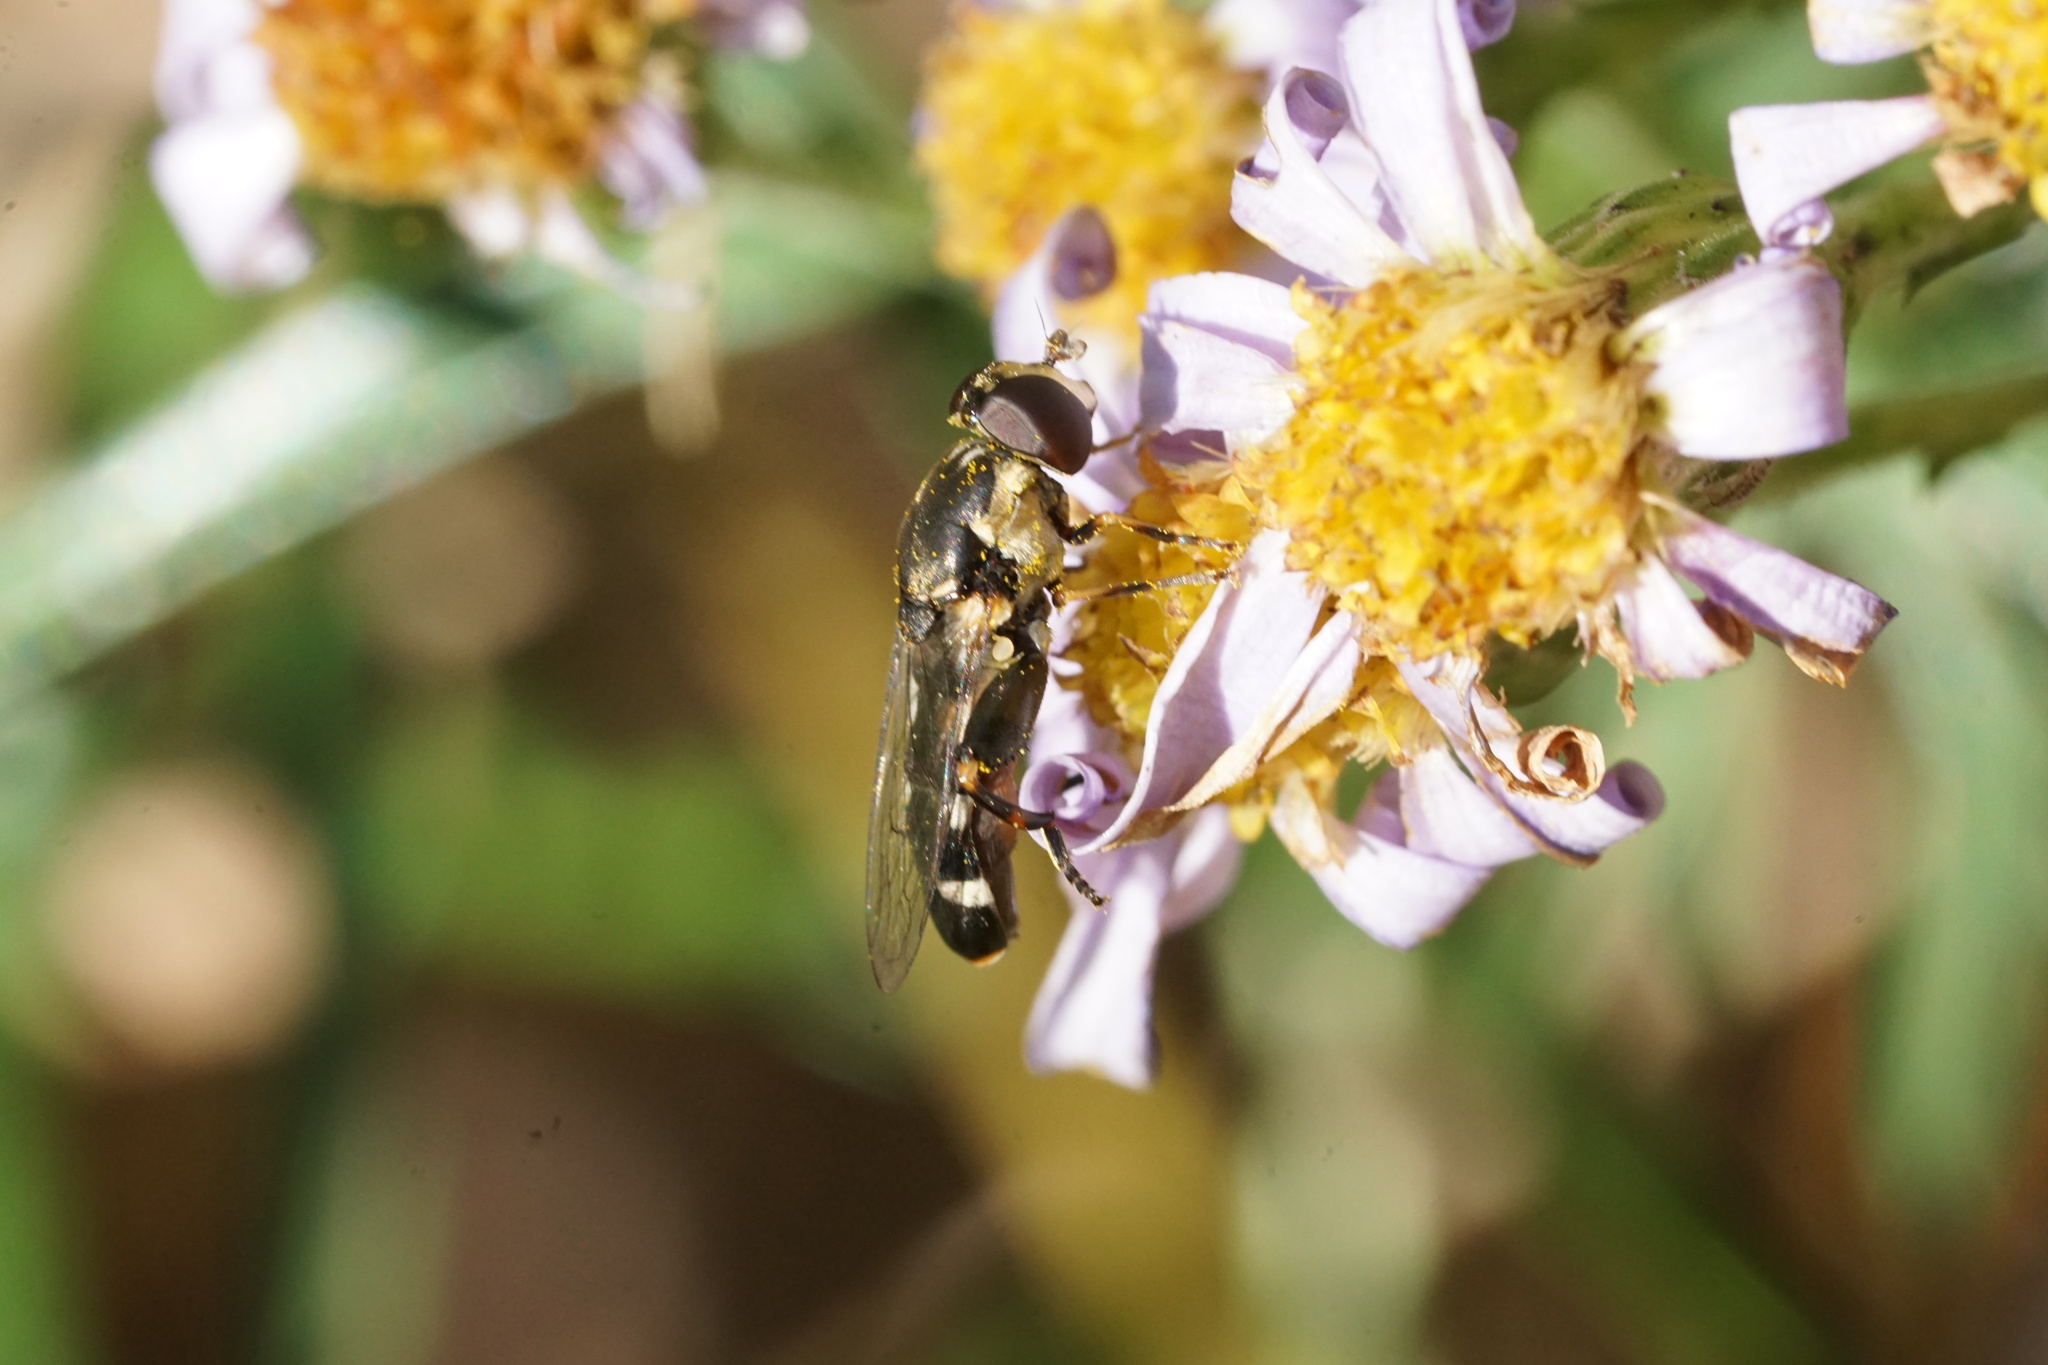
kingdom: Animalia
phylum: Arthropoda
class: Insecta
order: Diptera
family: Syrphidae
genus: Syritta
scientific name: Syritta pipiens
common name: Hover fly
